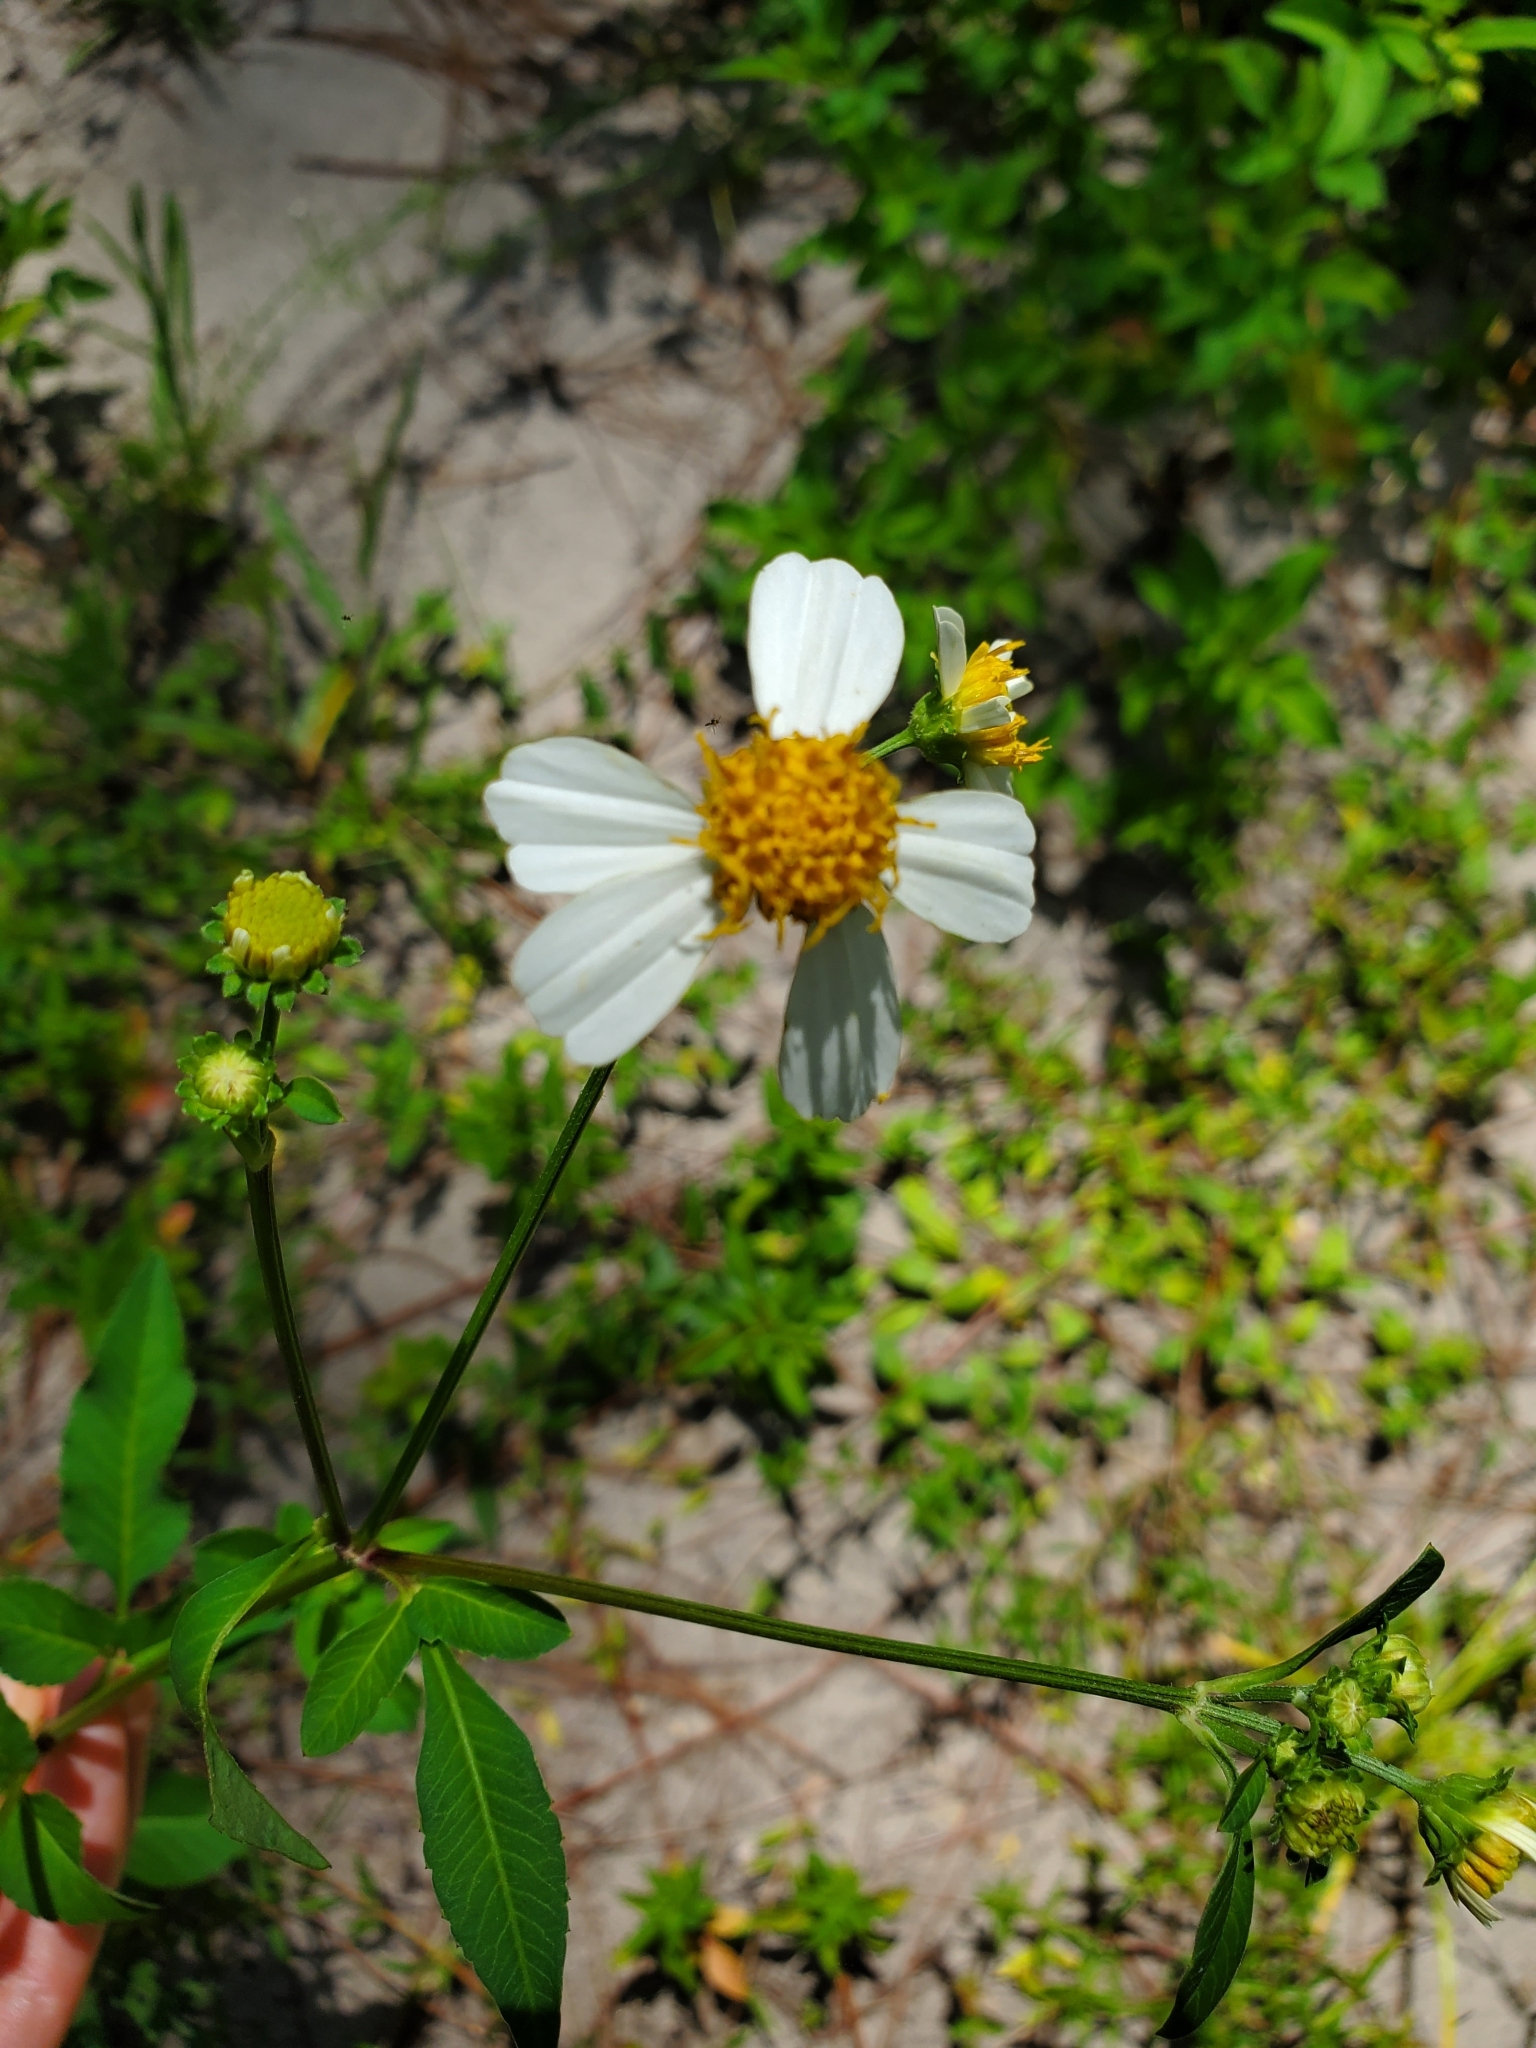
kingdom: Plantae
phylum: Tracheophyta
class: Magnoliopsida
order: Asterales
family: Asteraceae
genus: Bidens
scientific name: Bidens alba
